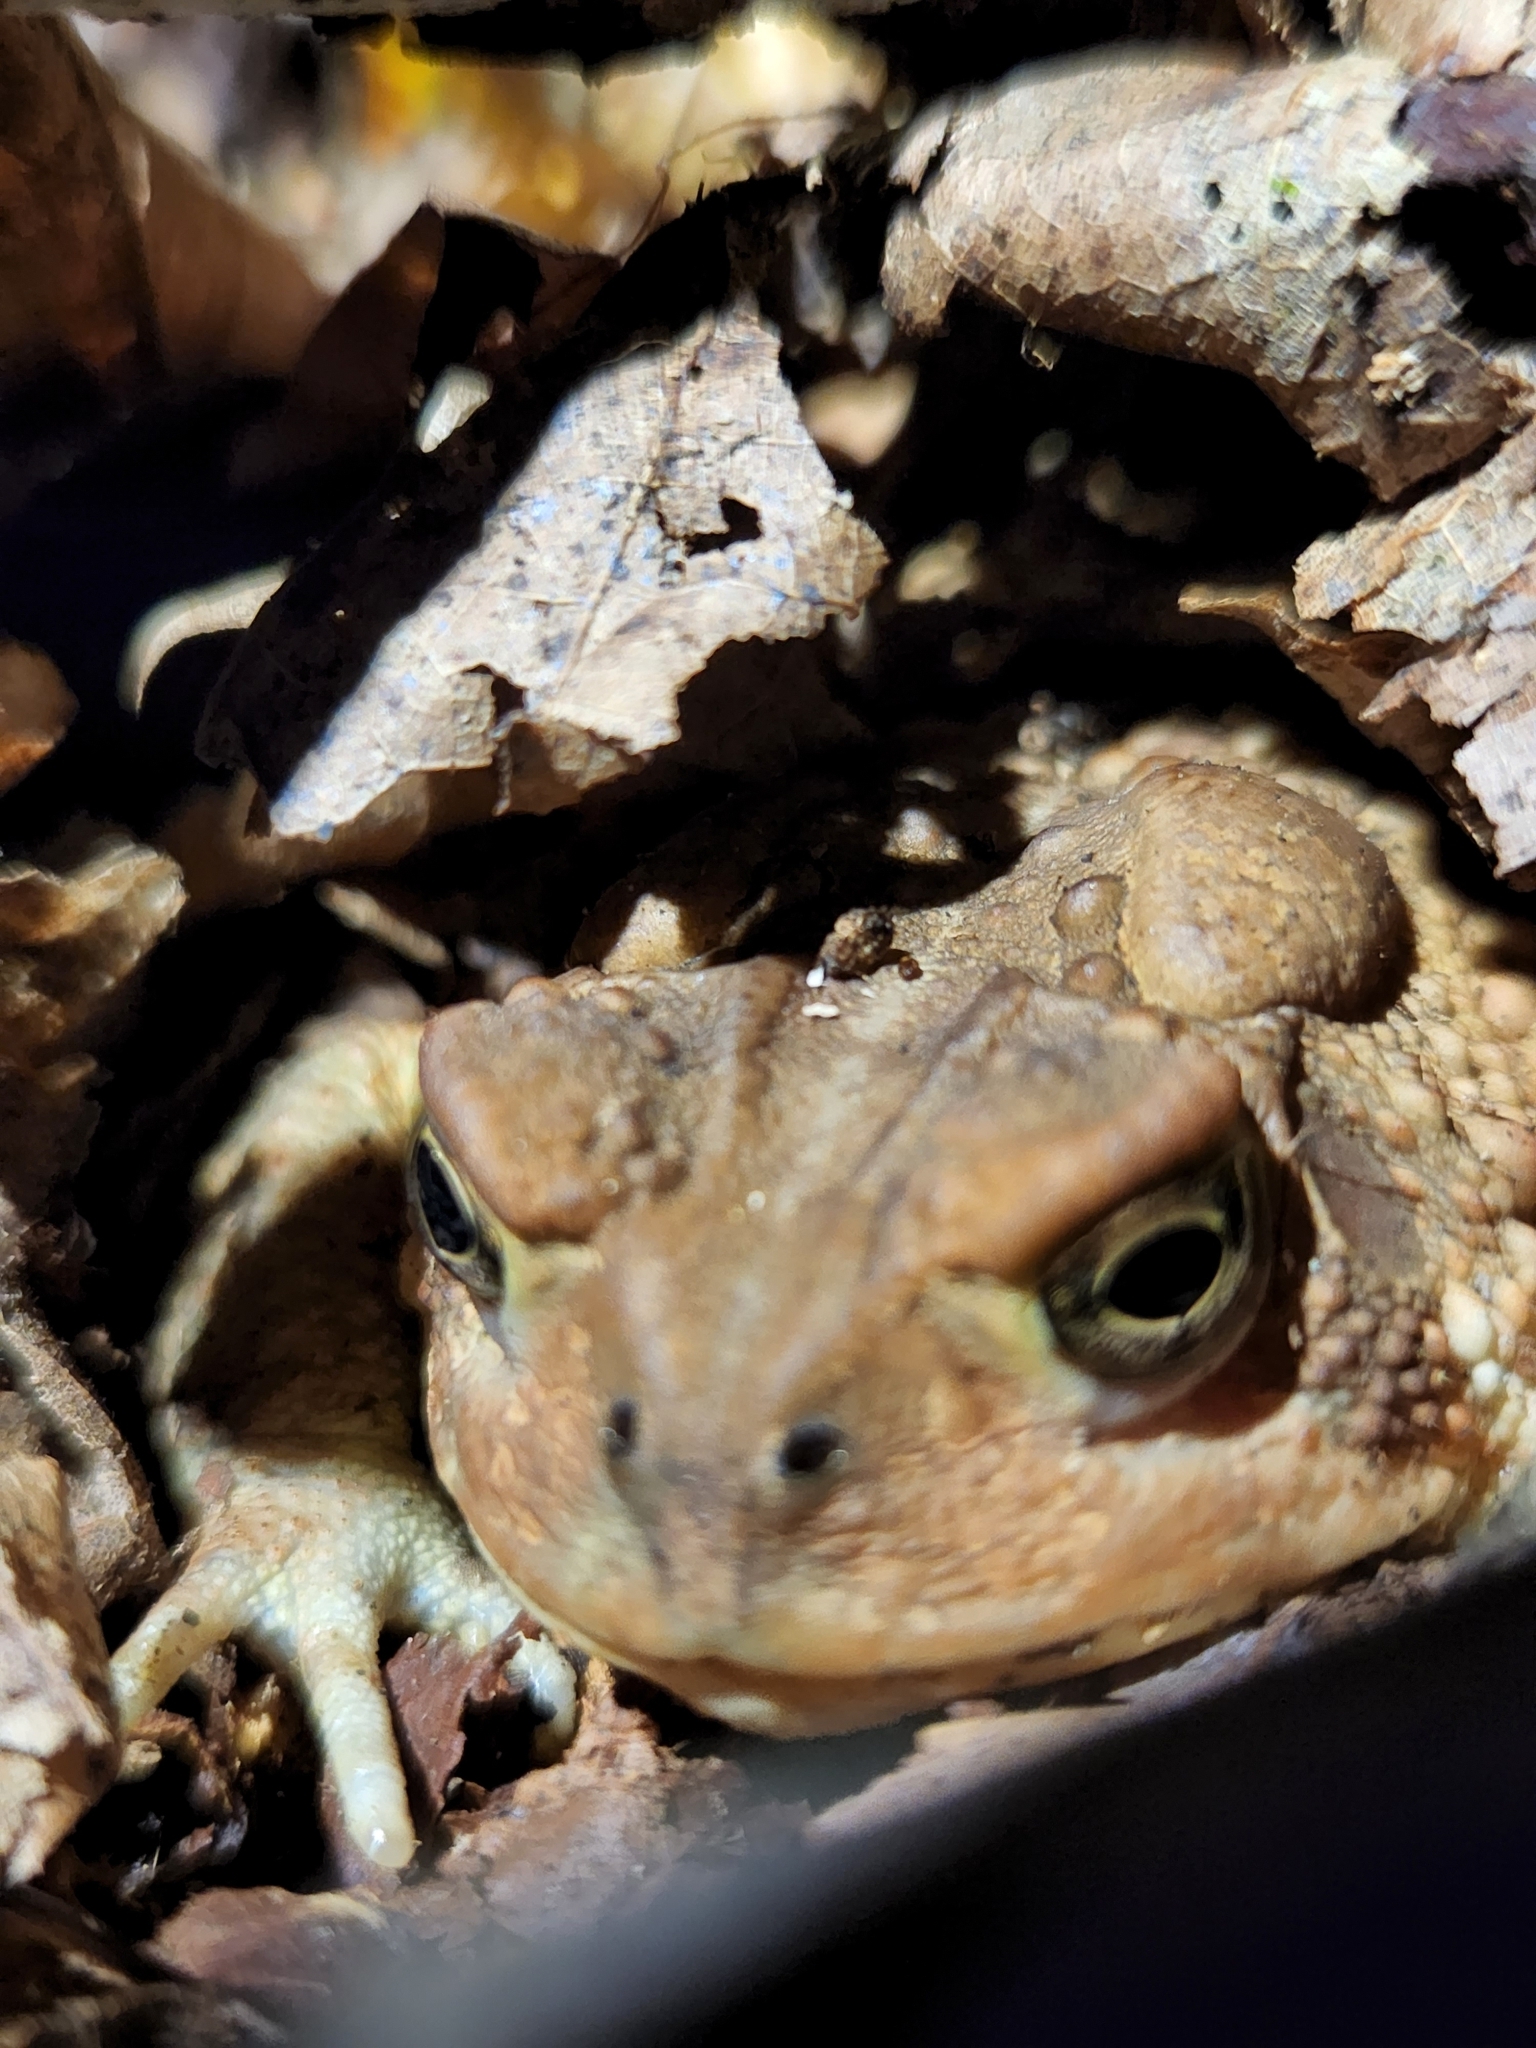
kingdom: Animalia
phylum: Chordata
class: Amphibia
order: Anura
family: Bufonidae
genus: Anaxyrus
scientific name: Anaxyrus americanus
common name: American toad
